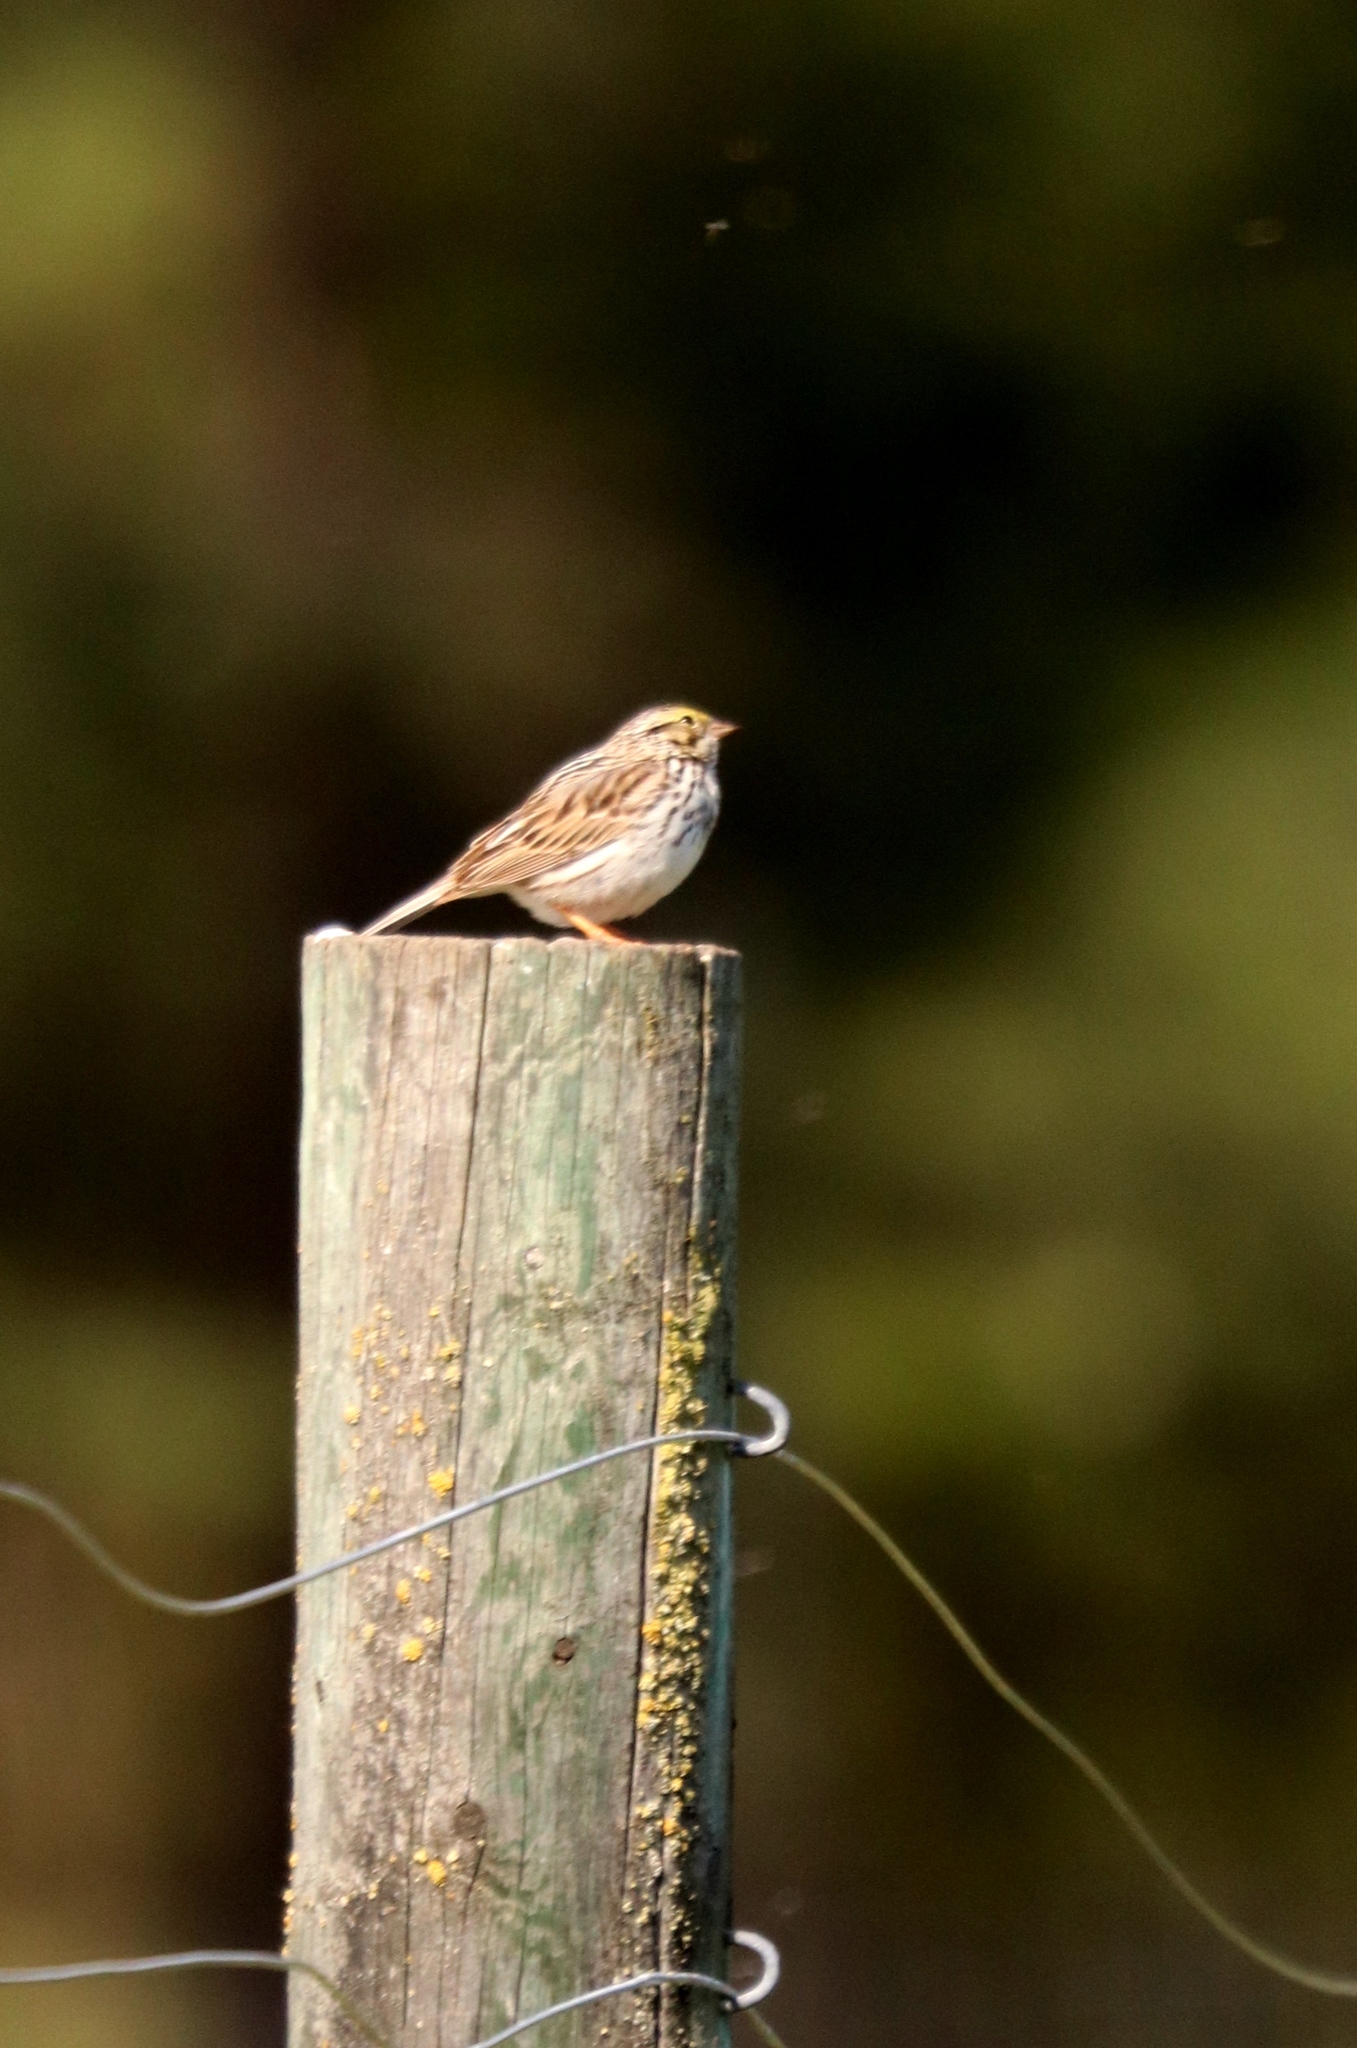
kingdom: Animalia
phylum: Chordata
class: Aves
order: Passeriformes
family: Passerellidae
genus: Passerculus
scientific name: Passerculus sandwichensis
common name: Savannah sparrow
